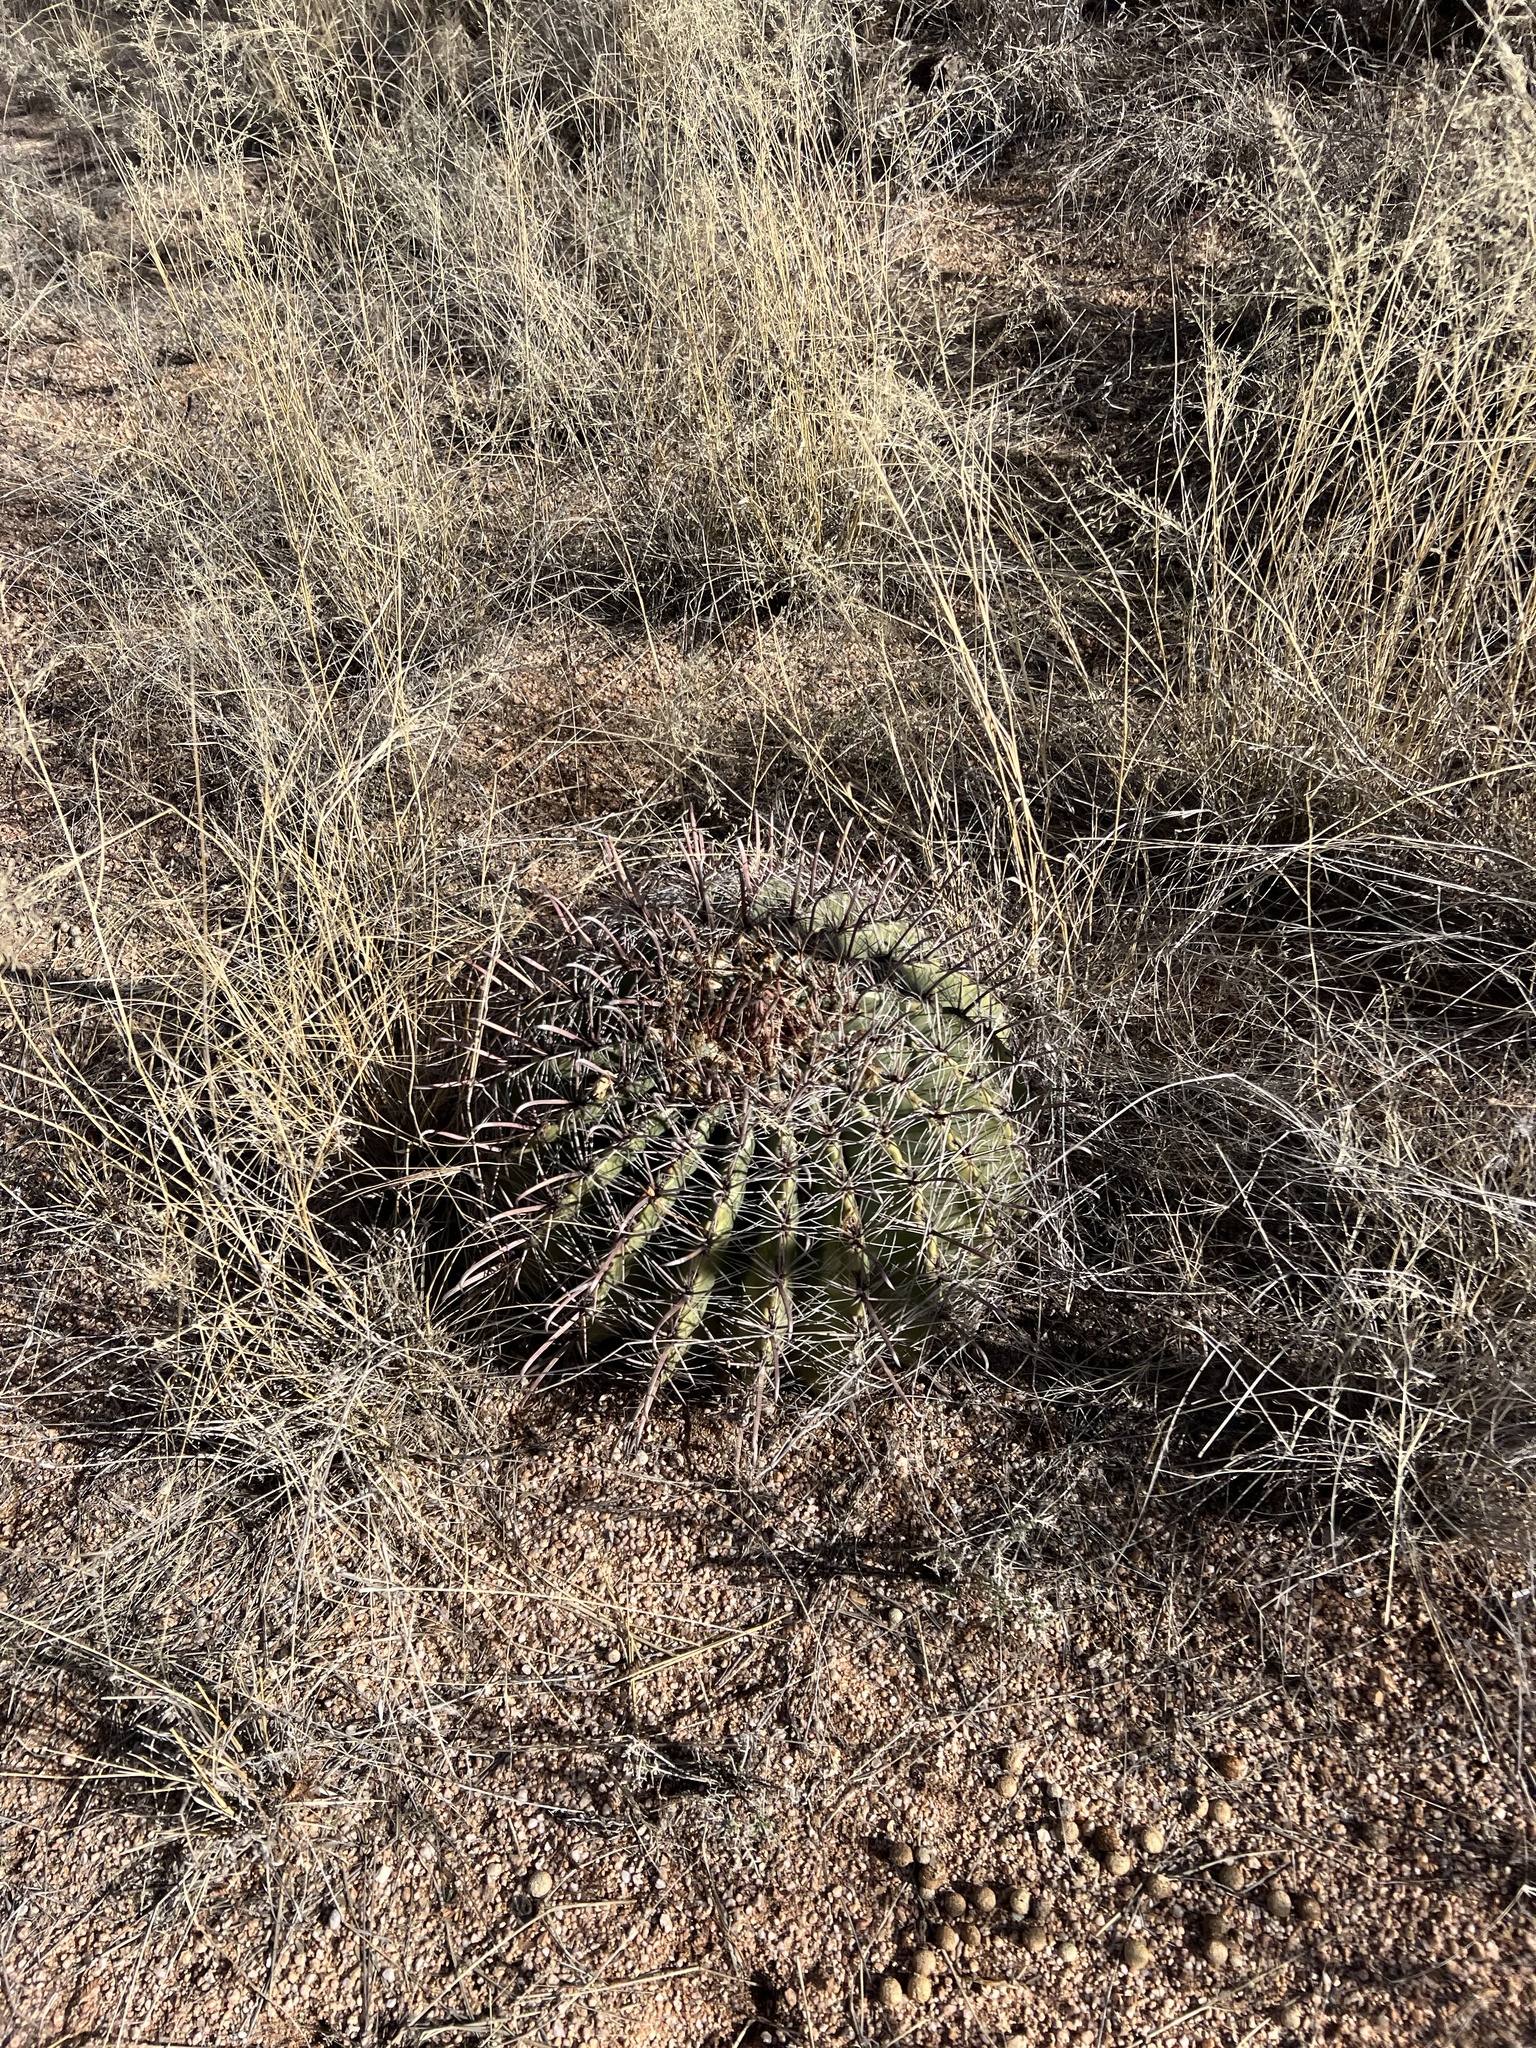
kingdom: Plantae
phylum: Tracheophyta
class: Magnoliopsida
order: Caryophyllales
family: Cactaceae
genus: Ferocactus
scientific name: Ferocactus wislizeni
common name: Candy barrel cactus
